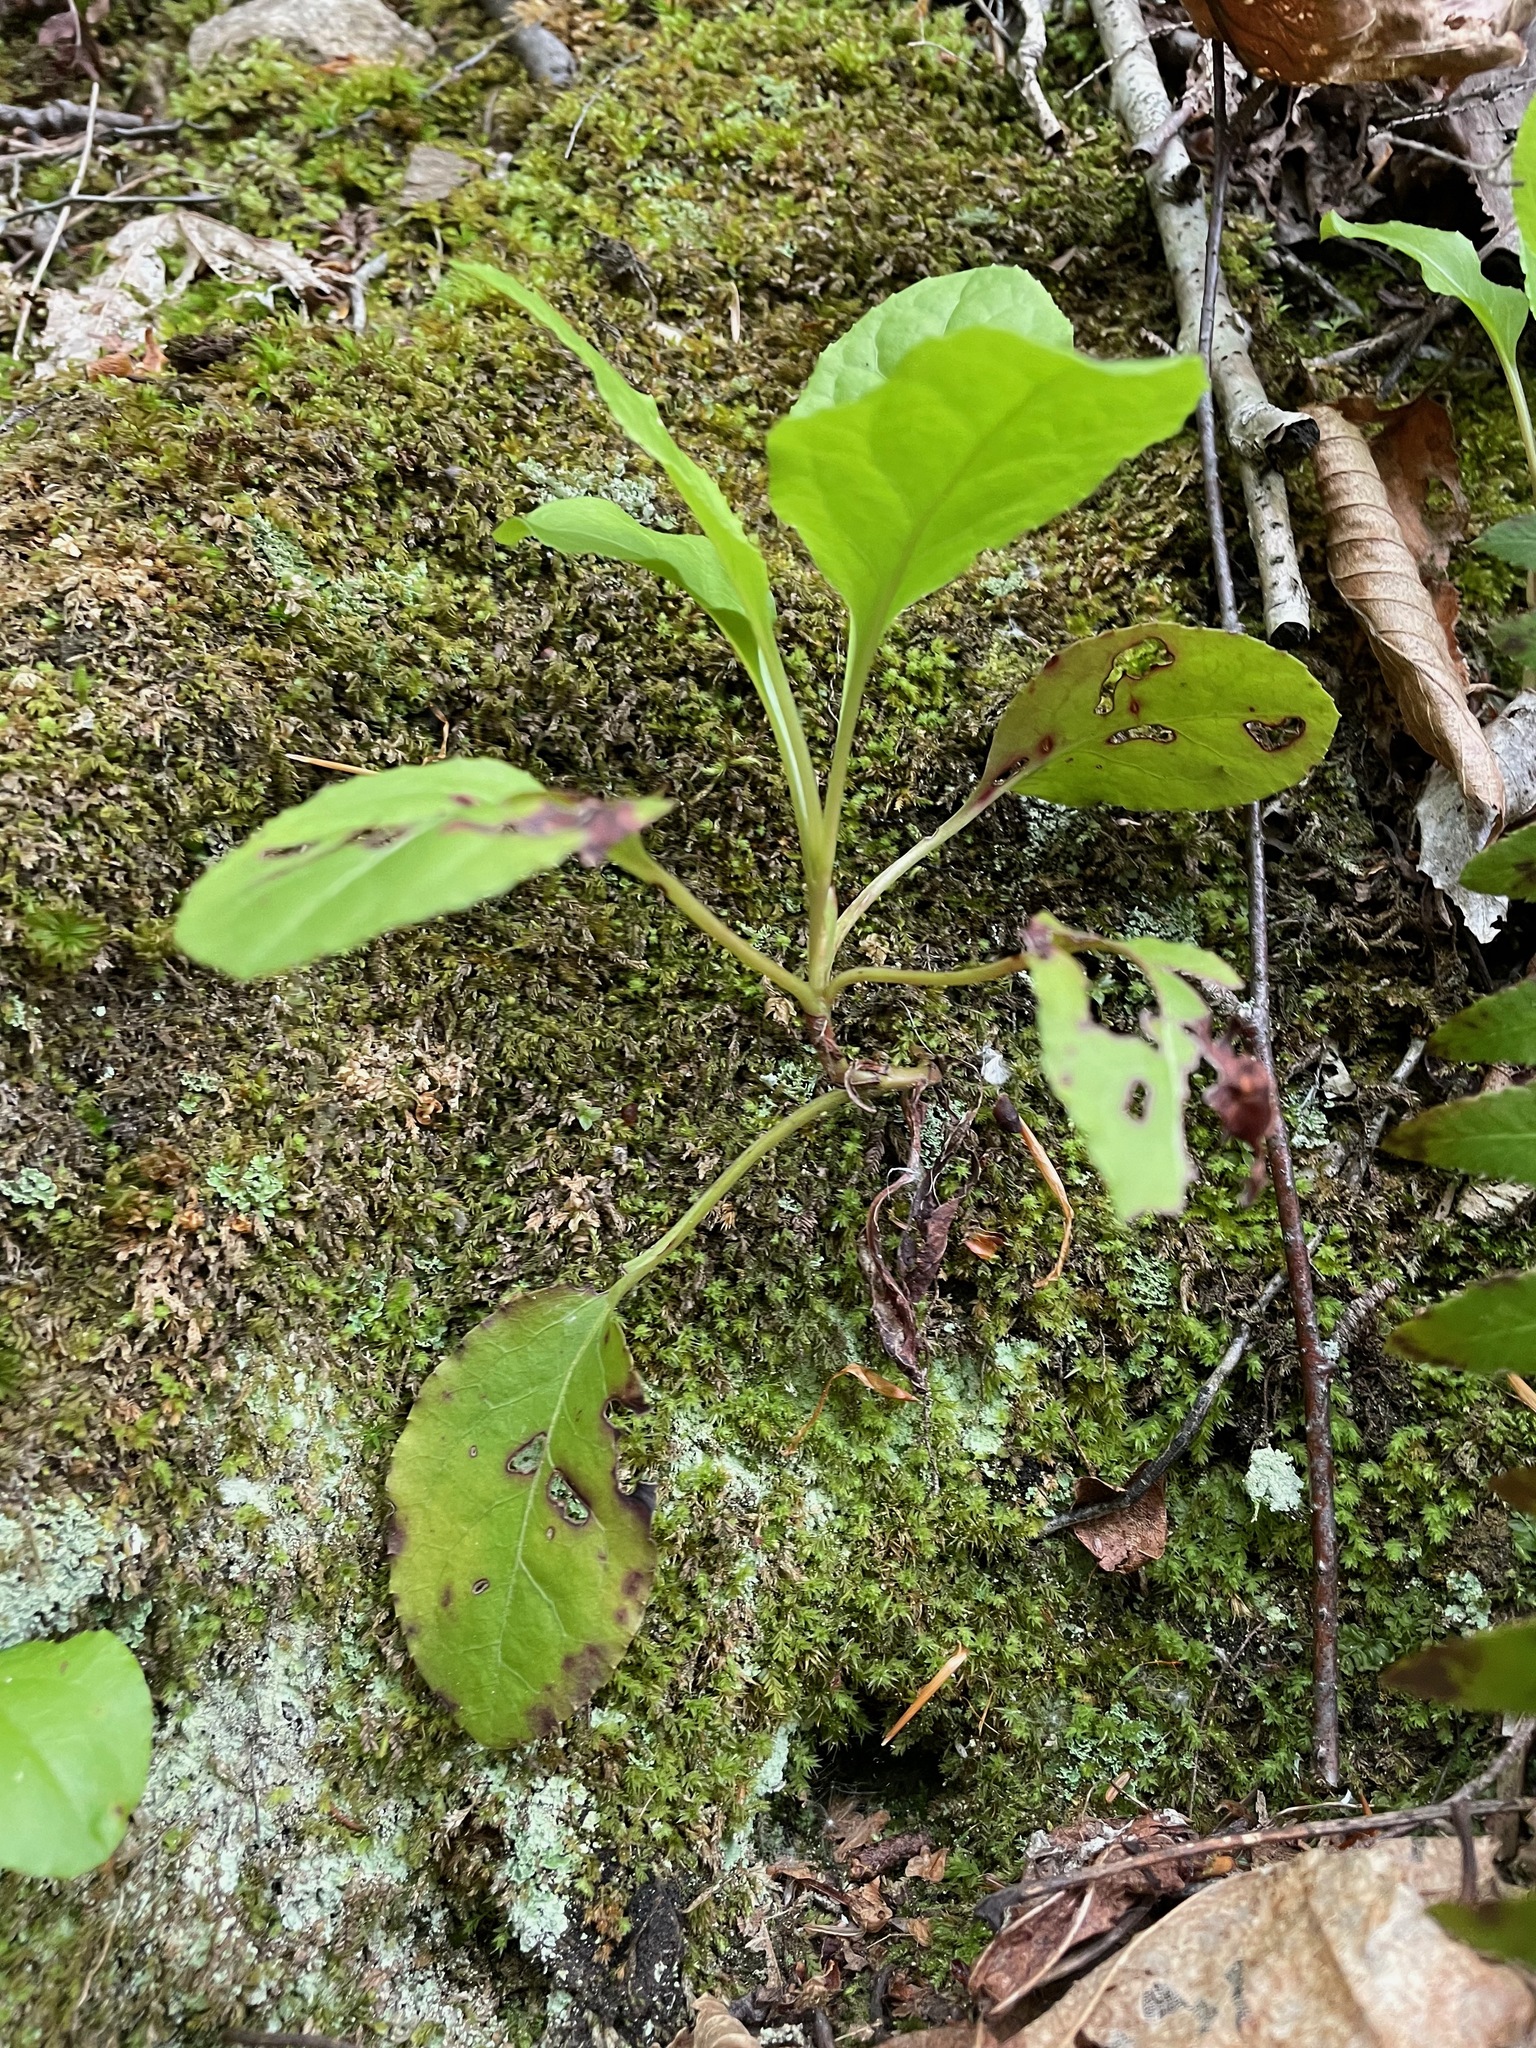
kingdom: Plantae
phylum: Tracheophyta
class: Magnoliopsida
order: Ericales
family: Ericaceae
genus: Pyrola
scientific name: Pyrola elliptica
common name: Shinleaf
